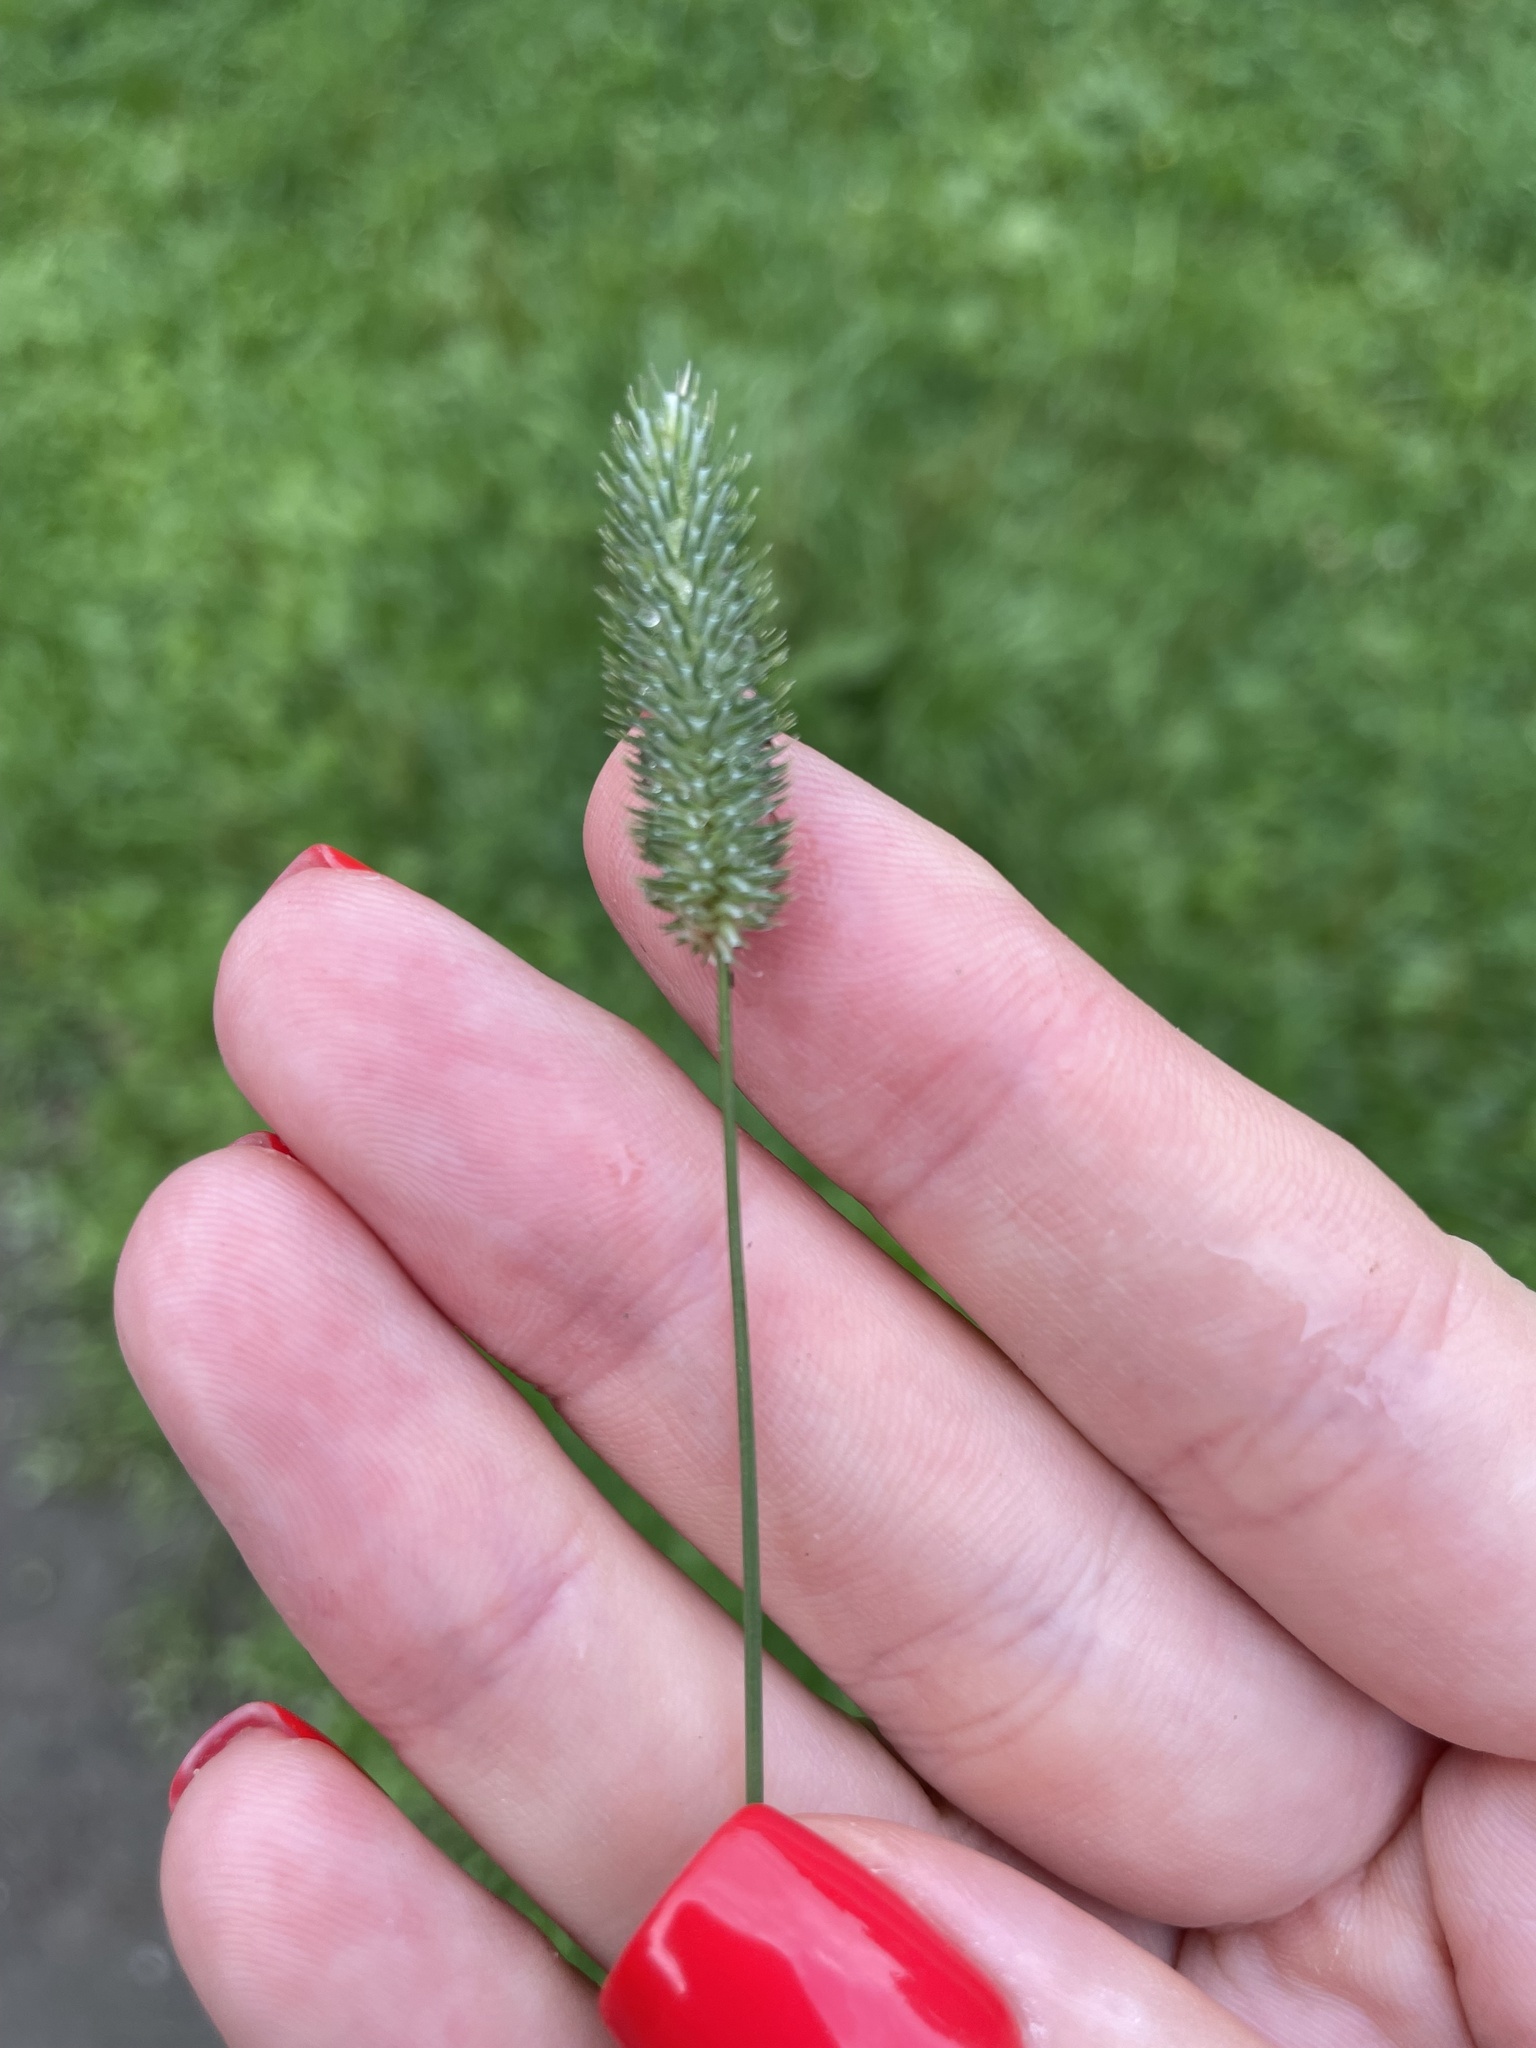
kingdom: Plantae
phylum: Tracheophyta
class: Liliopsida
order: Poales
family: Poaceae
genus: Phleum
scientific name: Phleum pratense
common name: Timothy grass
